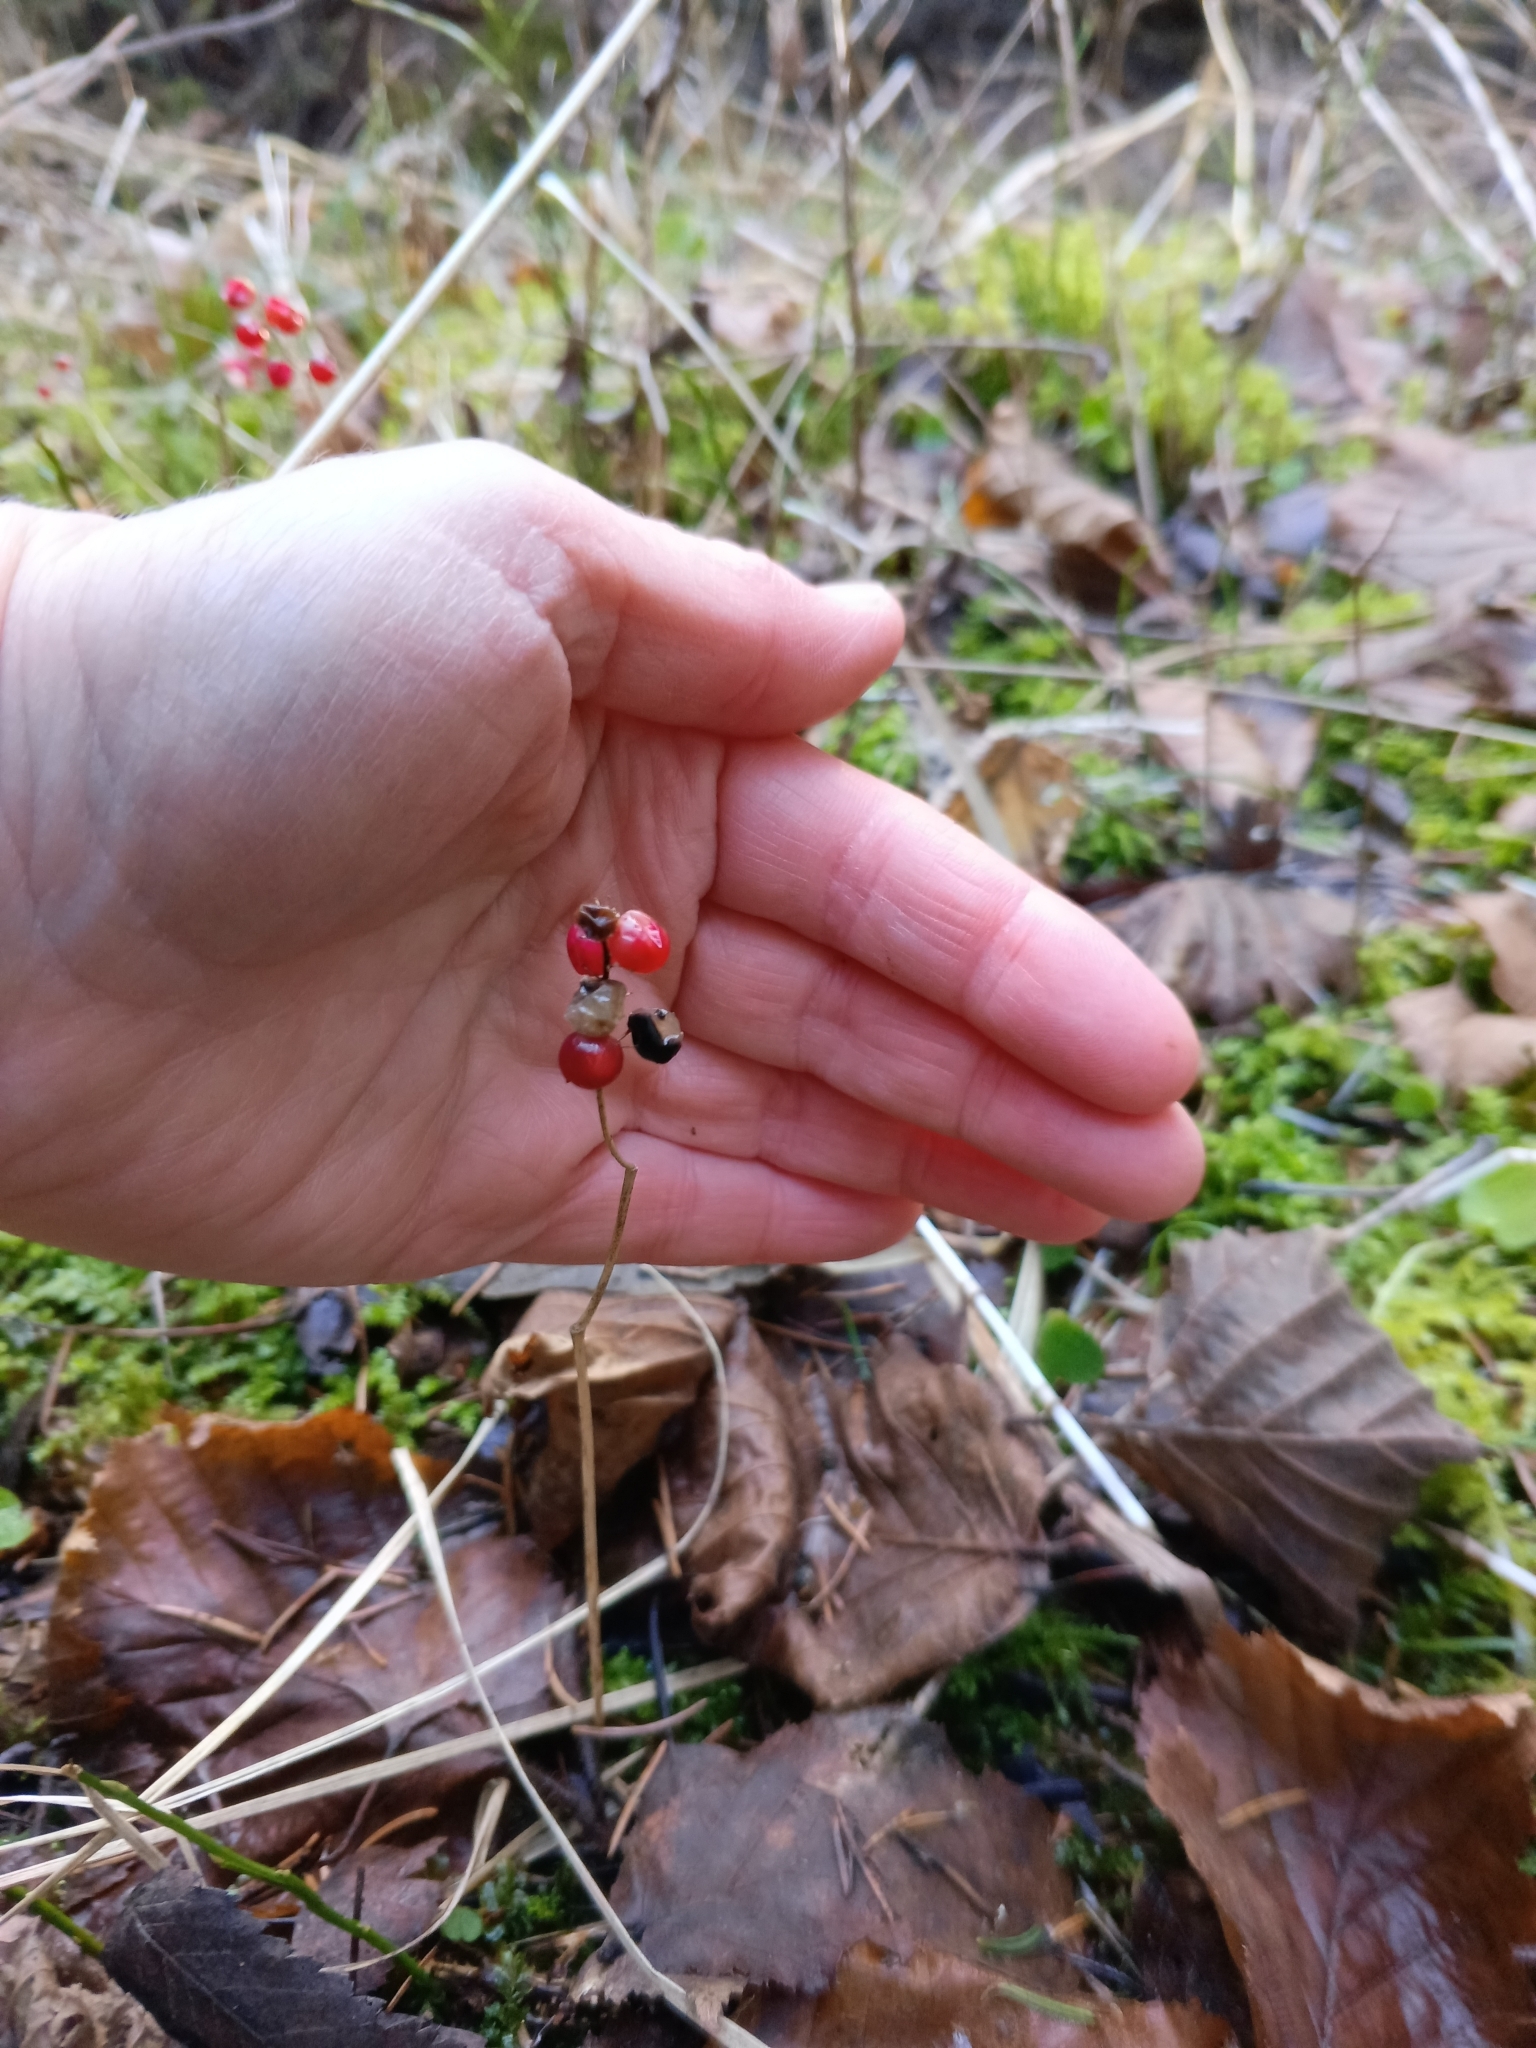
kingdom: Plantae
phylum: Tracheophyta
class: Liliopsida
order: Asparagales
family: Asparagaceae
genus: Maianthemum
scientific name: Maianthemum bifolium
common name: May lily
